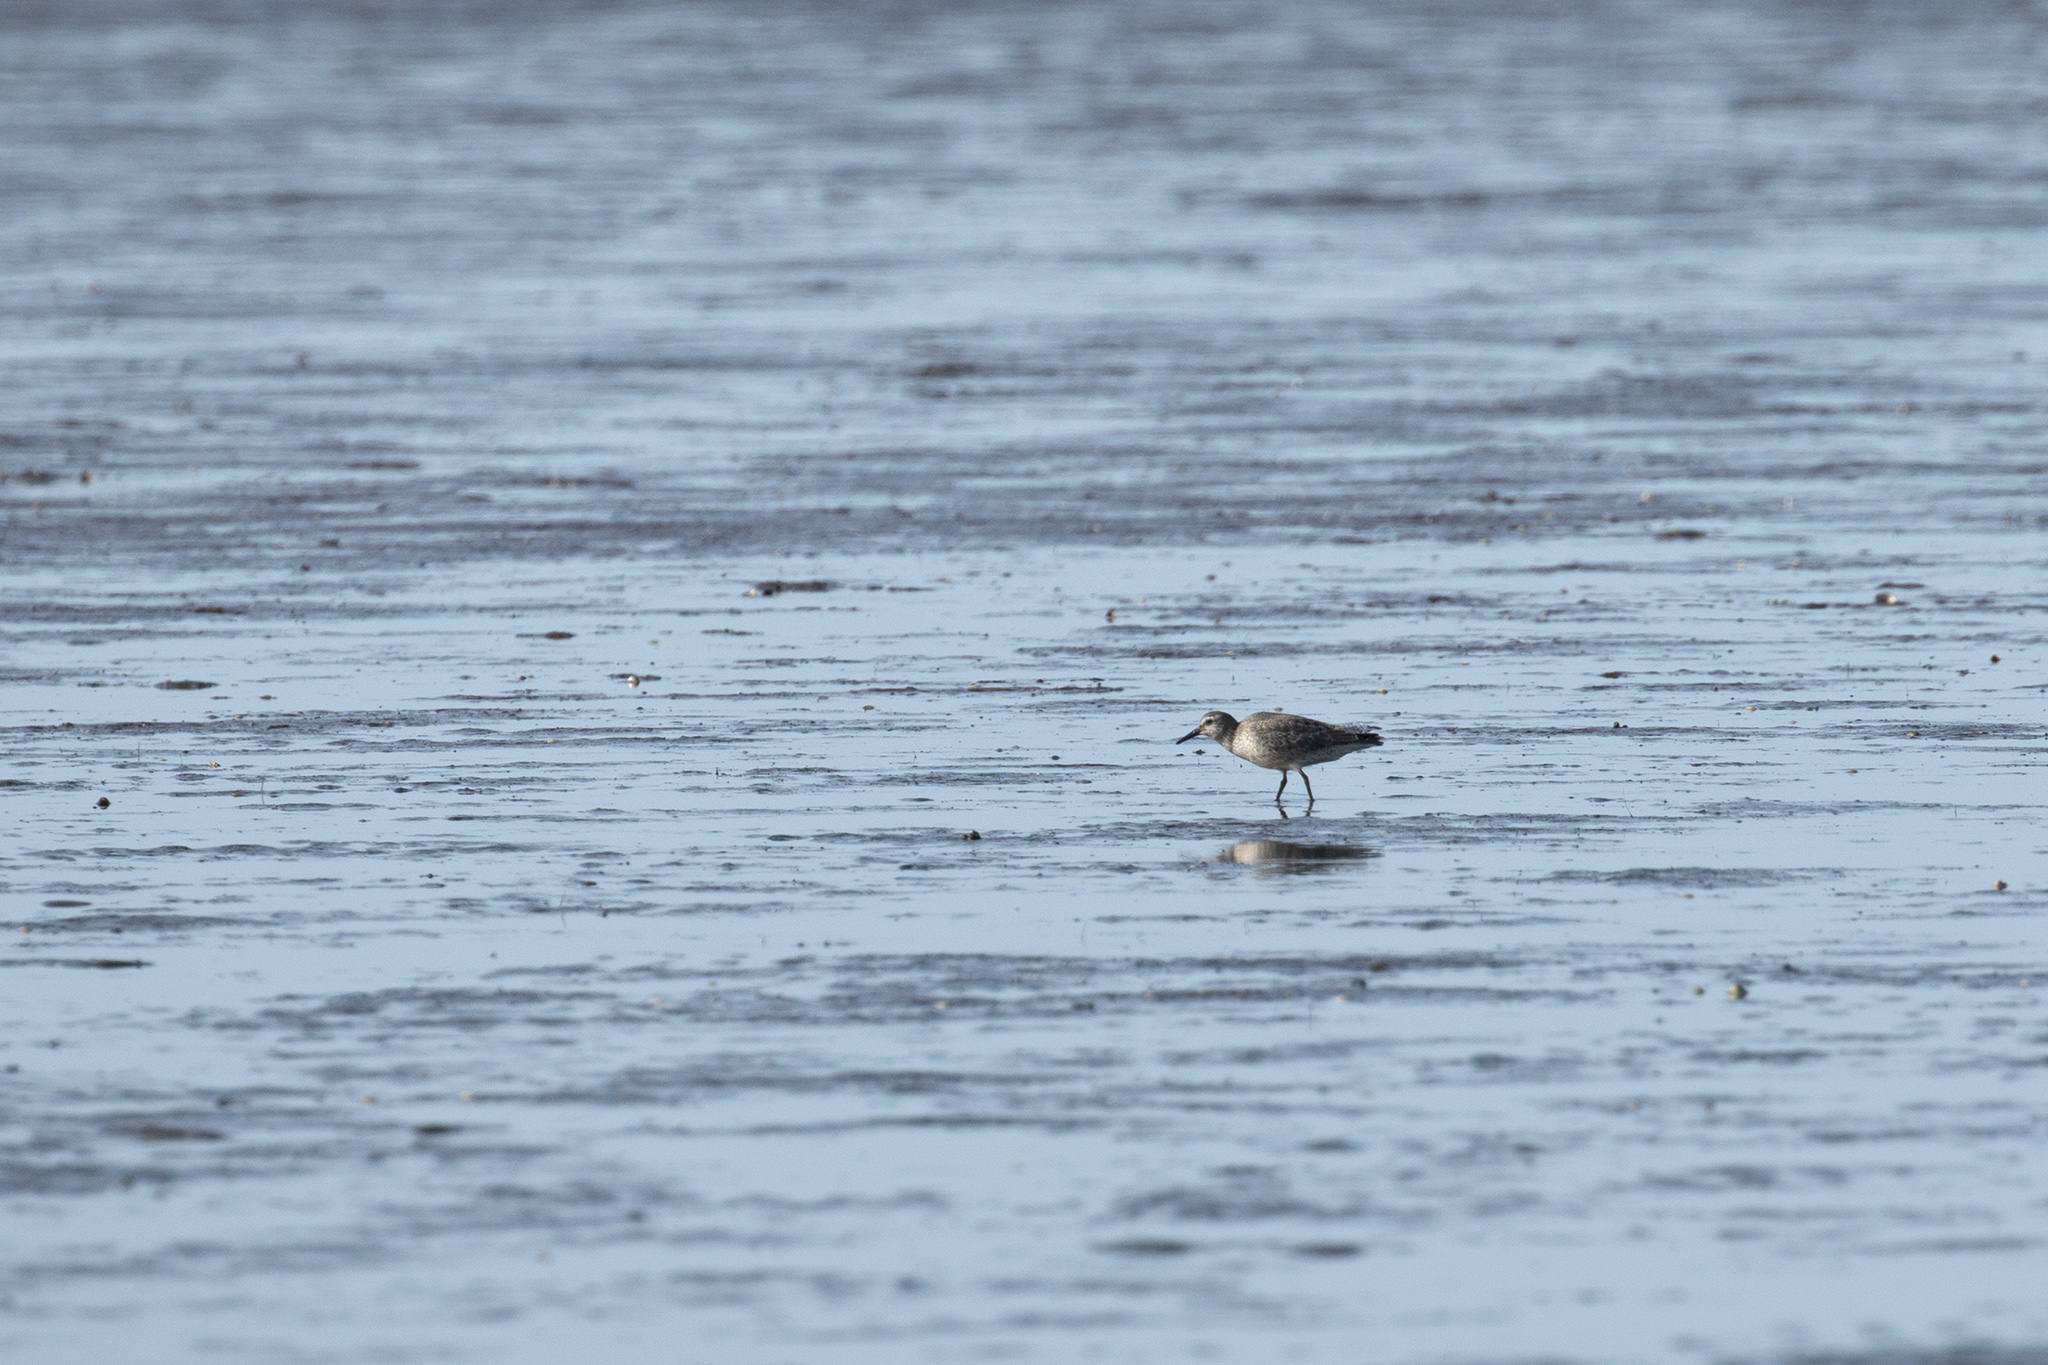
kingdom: Animalia
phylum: Chordata
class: Aves
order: Charadriiformes
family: Scolopacidae
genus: Calidris
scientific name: Calidris canutus
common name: Red knot
